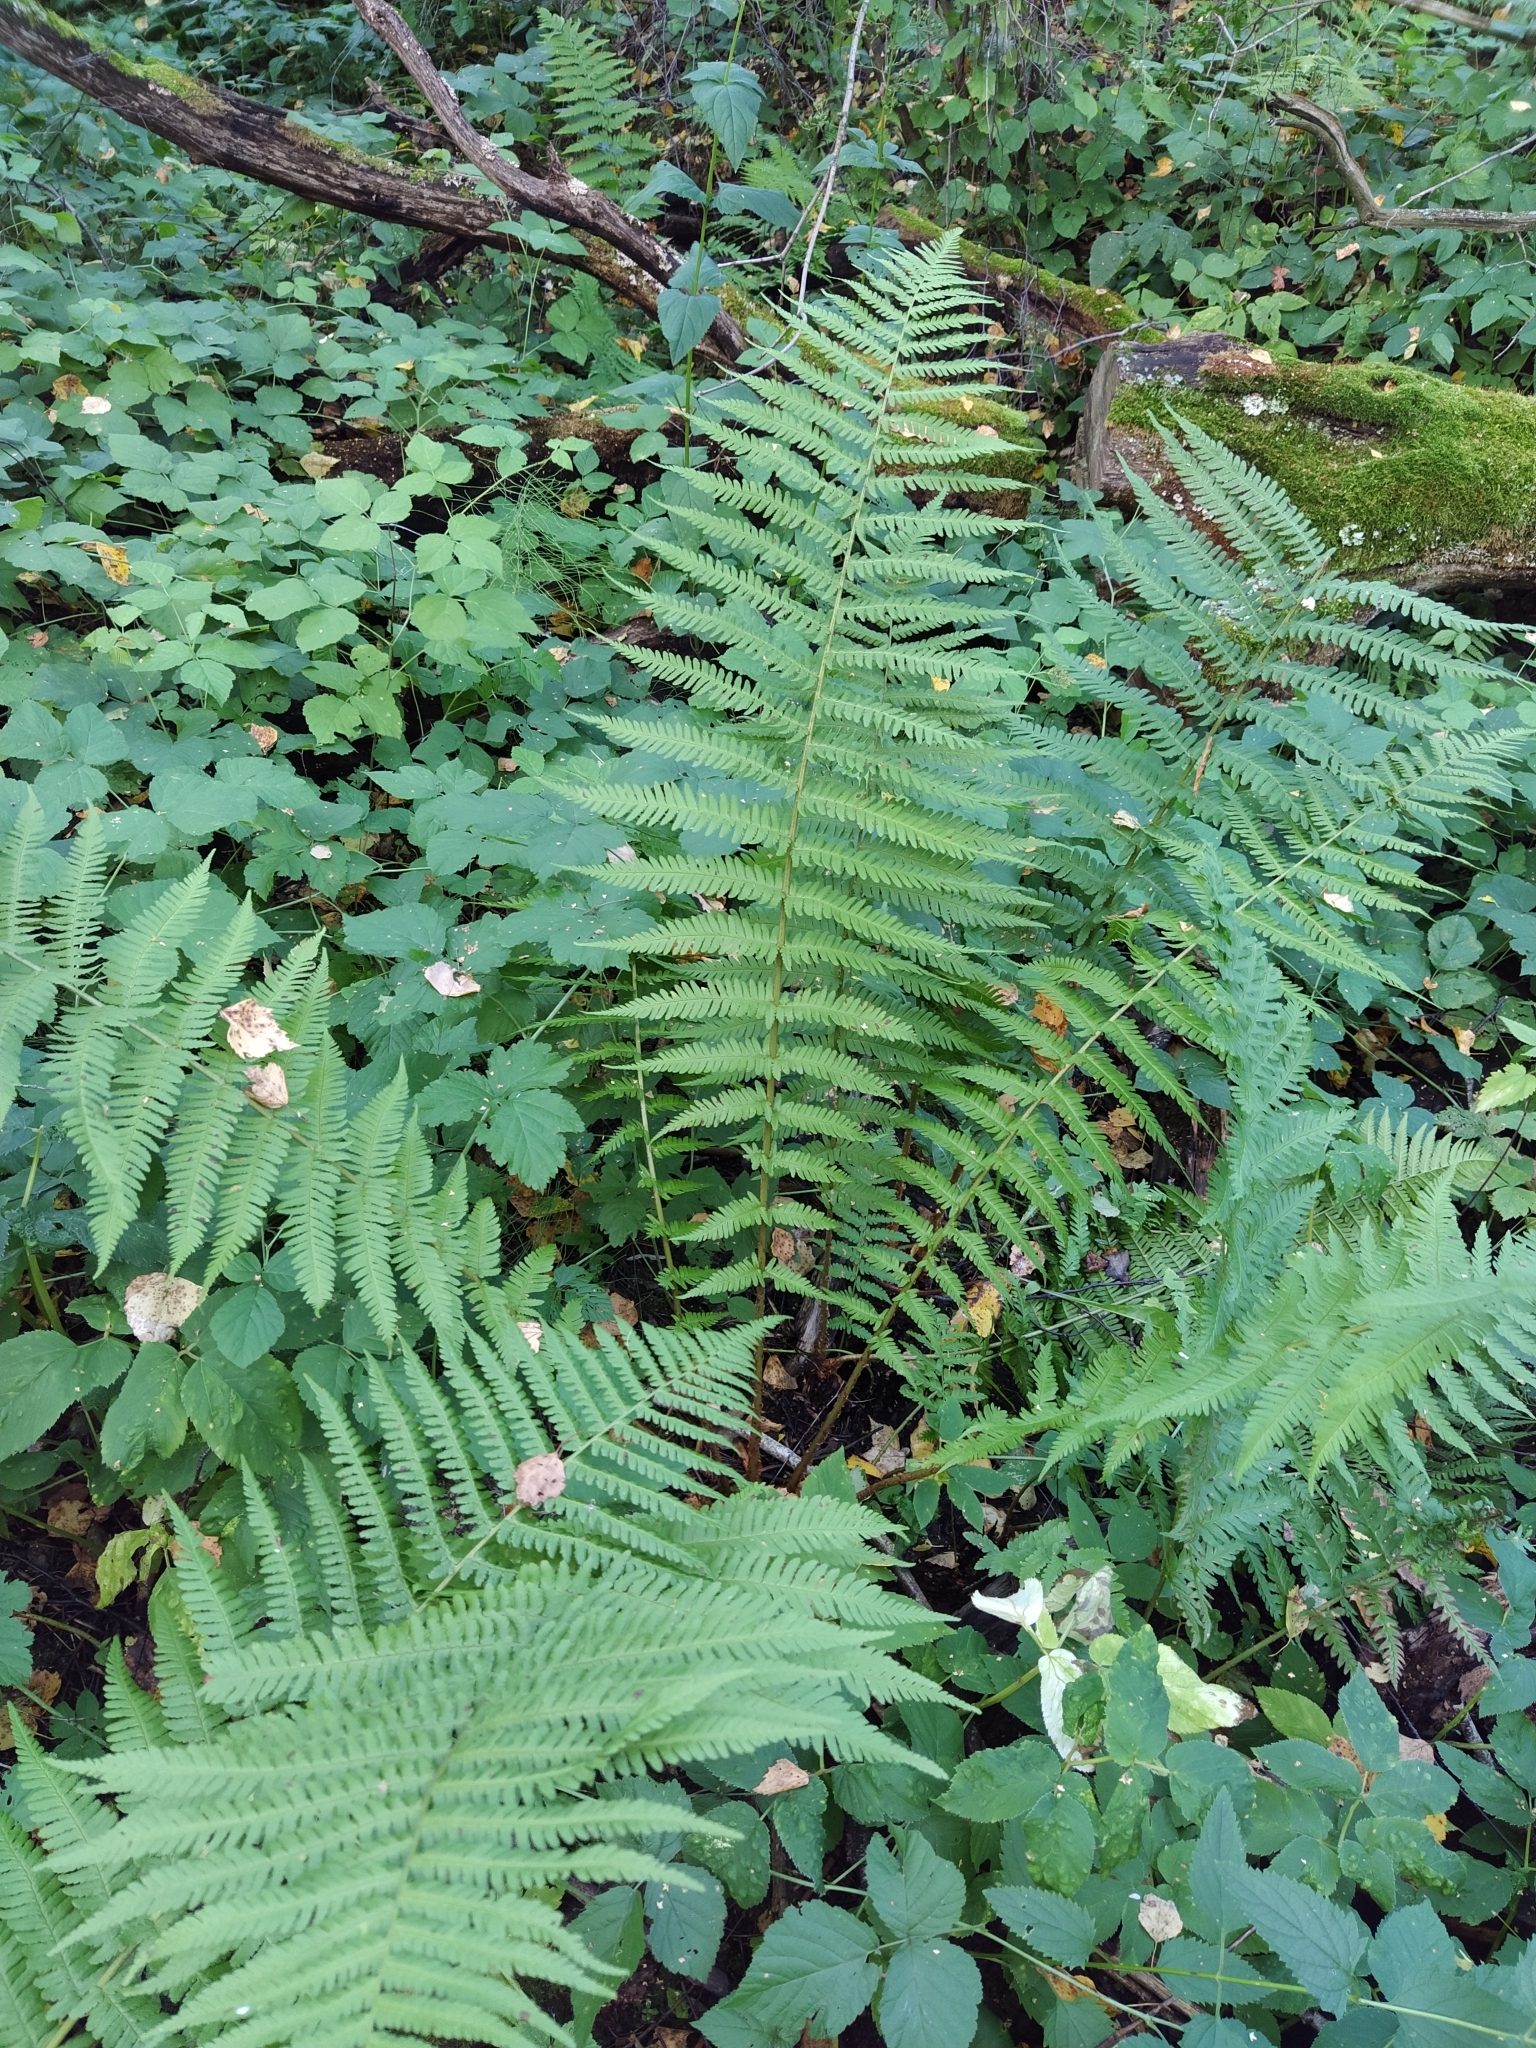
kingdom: Plantae
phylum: Tracheophyta
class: Polypodiopsida
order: Polypodiales
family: Dryopteridaceae
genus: Dryopteris
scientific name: Dryopteris filix-mas
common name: Male fern
